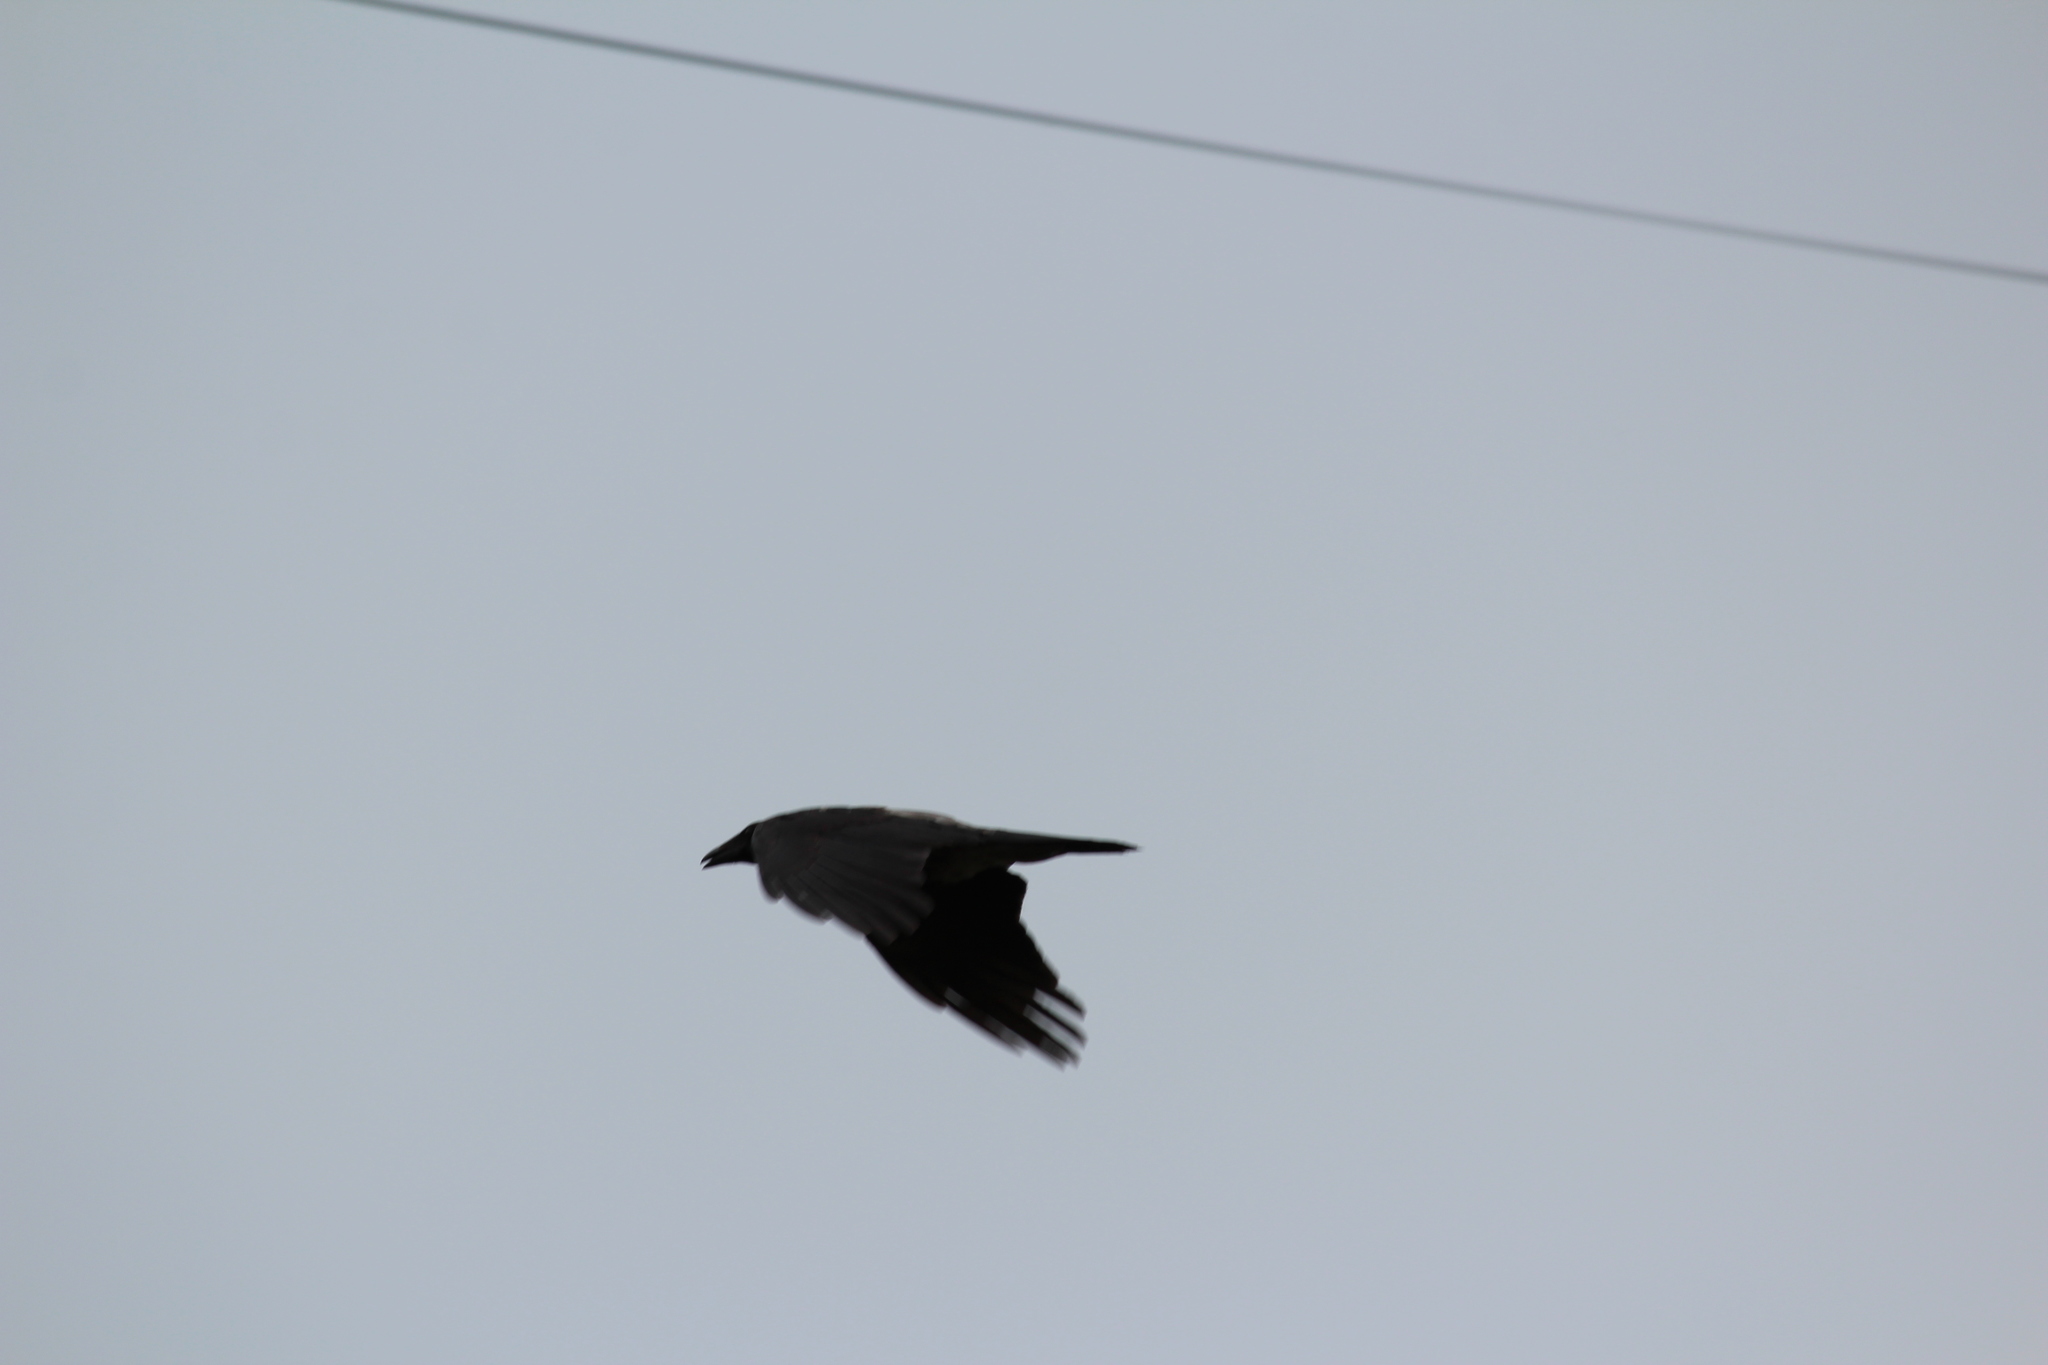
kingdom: Animalia
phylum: Chordata
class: Aves
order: Passeriformes
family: Corvidae
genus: Corvus
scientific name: Corvus cornix
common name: Hooded crow
